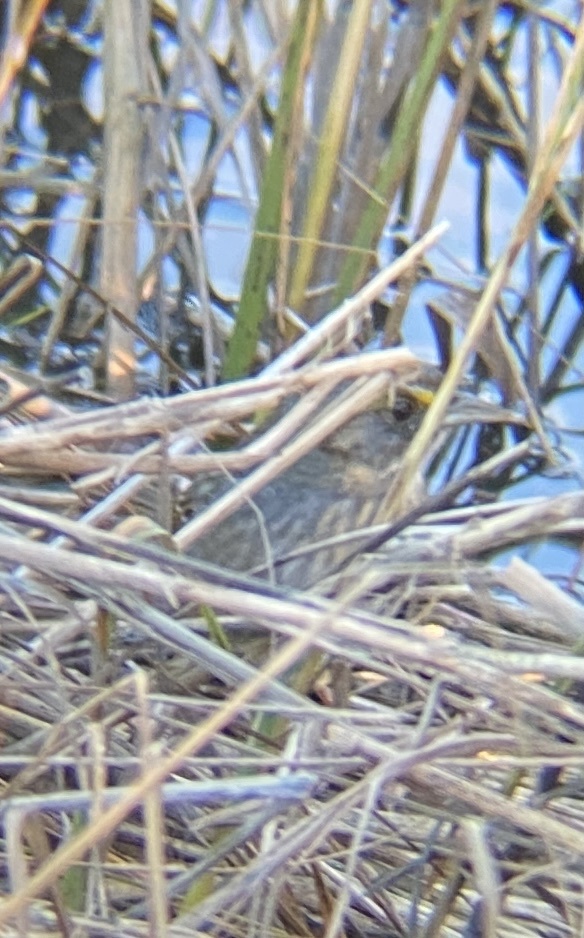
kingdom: Animalia
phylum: Chordata
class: Aves
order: Passeriformes
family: Passerellidae
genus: Ammospiza
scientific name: Ammospiza maritima
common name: Seaside sparrow
